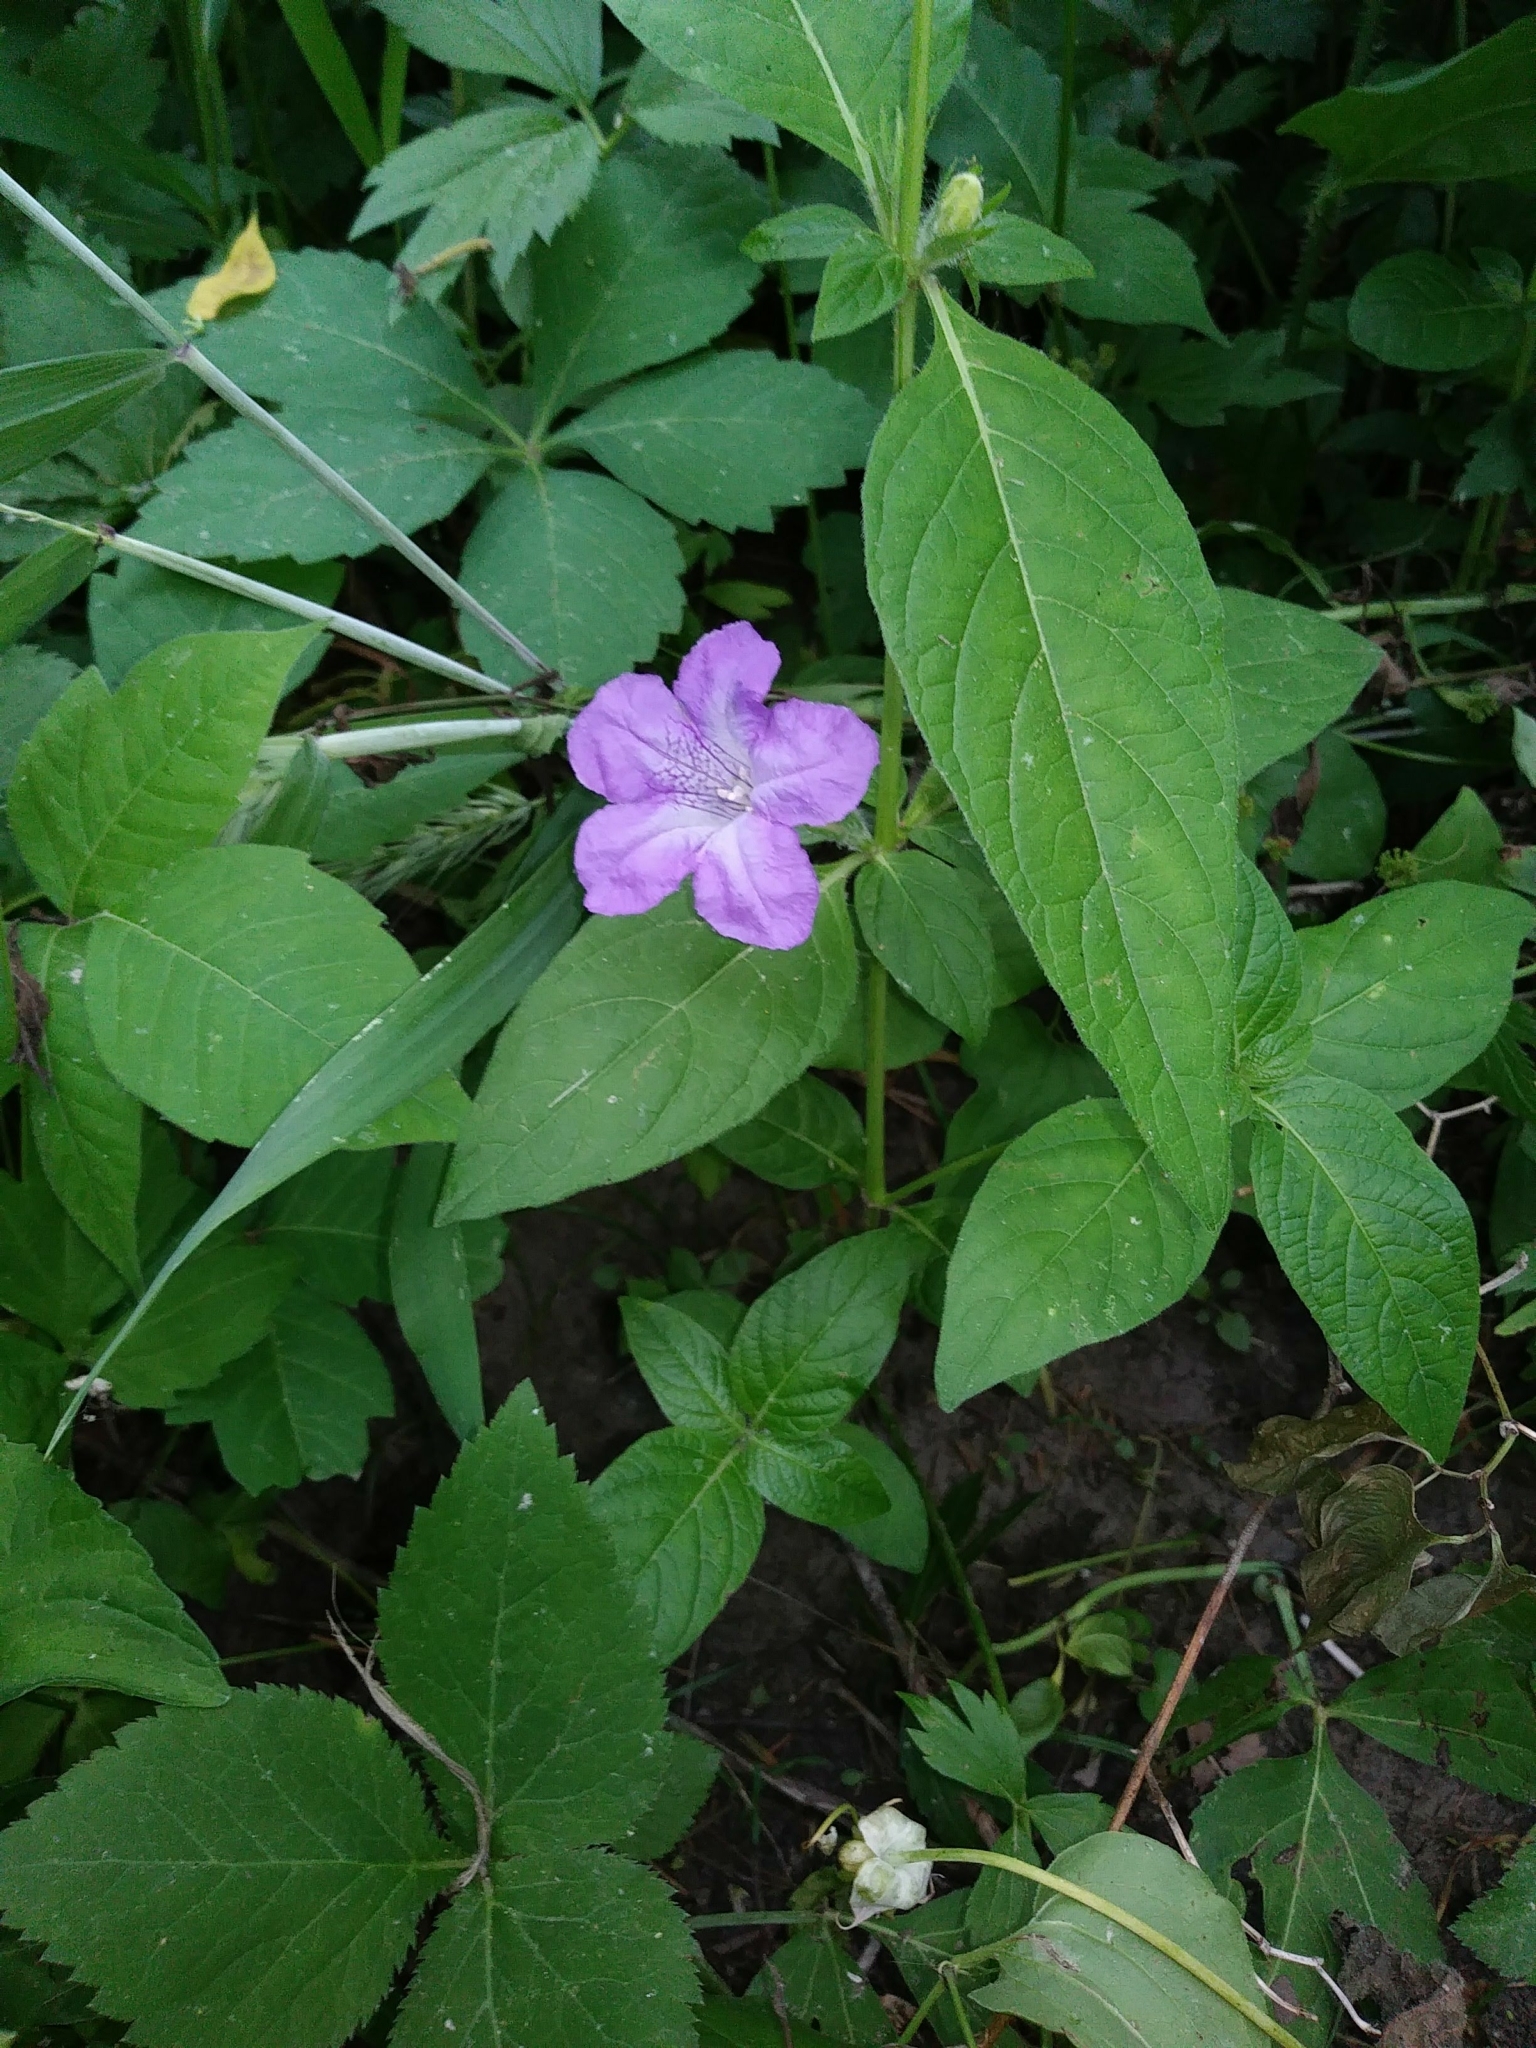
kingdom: Plantae
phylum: Tracheophyta
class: Magnoliopsida
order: Lamiales
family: Acanthaceae
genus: Ruellia
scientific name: Ruellia strepens
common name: Limestone wild petunia
